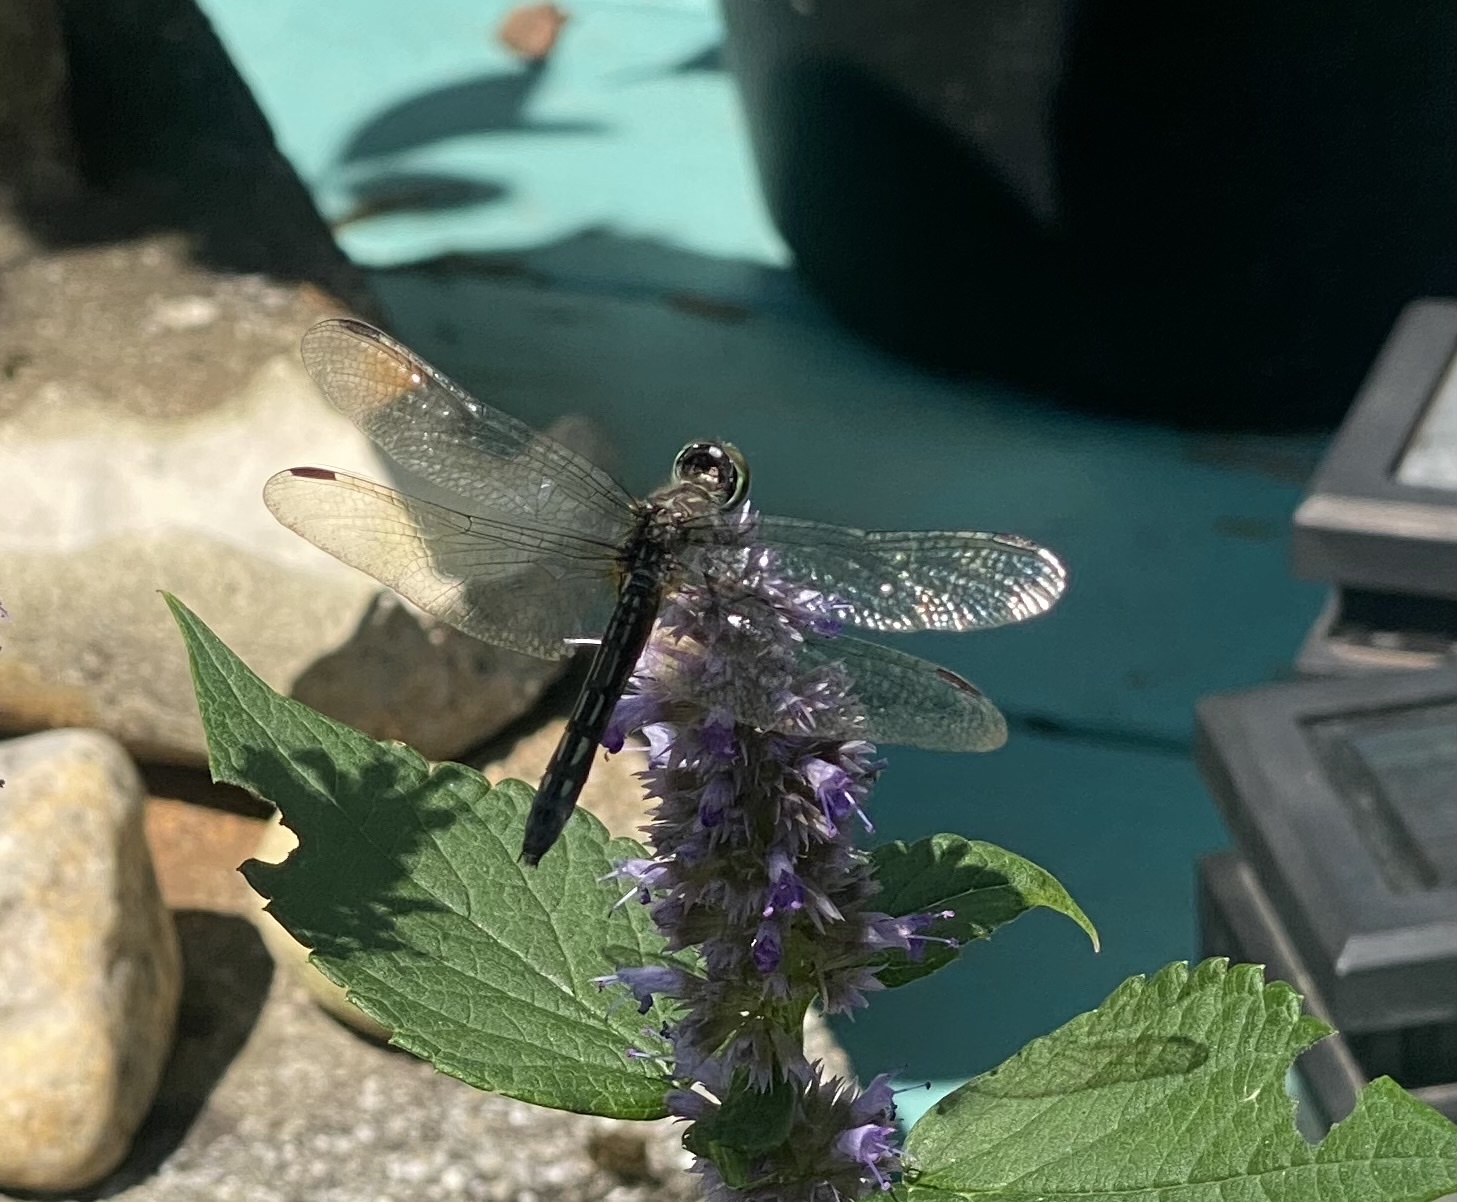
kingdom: Animalia
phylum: Arthropoda
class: Insecta
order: Odonata
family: Libellulidae
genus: Pachydiplax
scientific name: Pachydiplax longipennis
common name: Blue dasher
